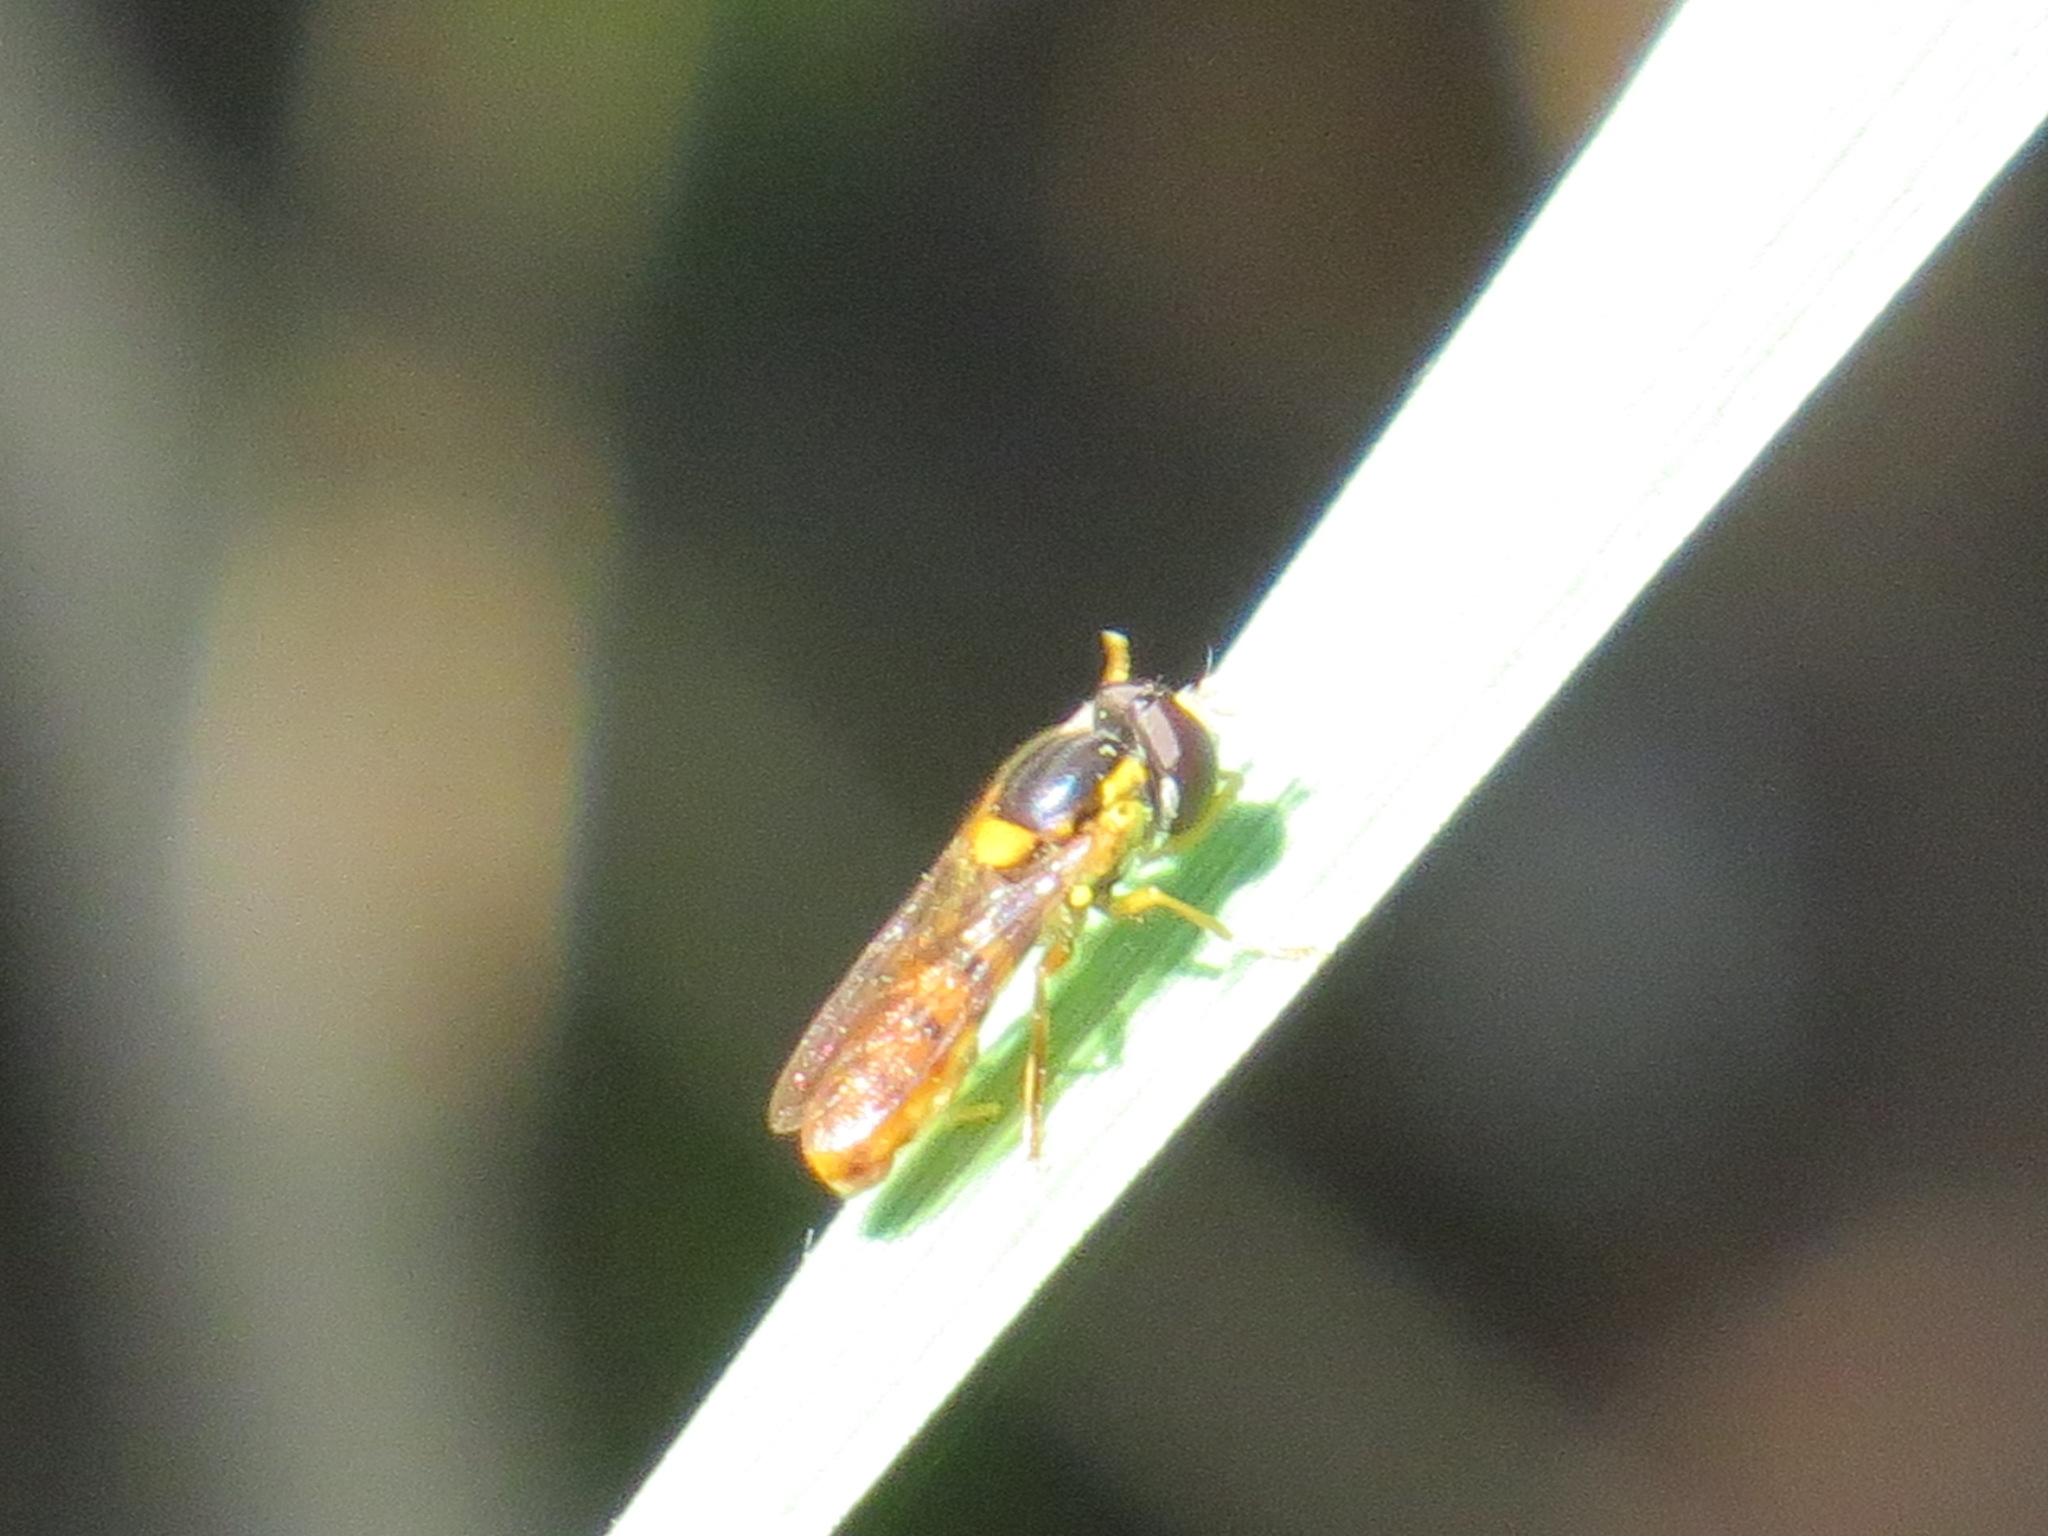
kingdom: Animalia
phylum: Arthropoda
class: Insecta
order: Diptera
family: Syrphidae
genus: Sphaerophoria
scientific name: Sphaerophoria sulphuripes
